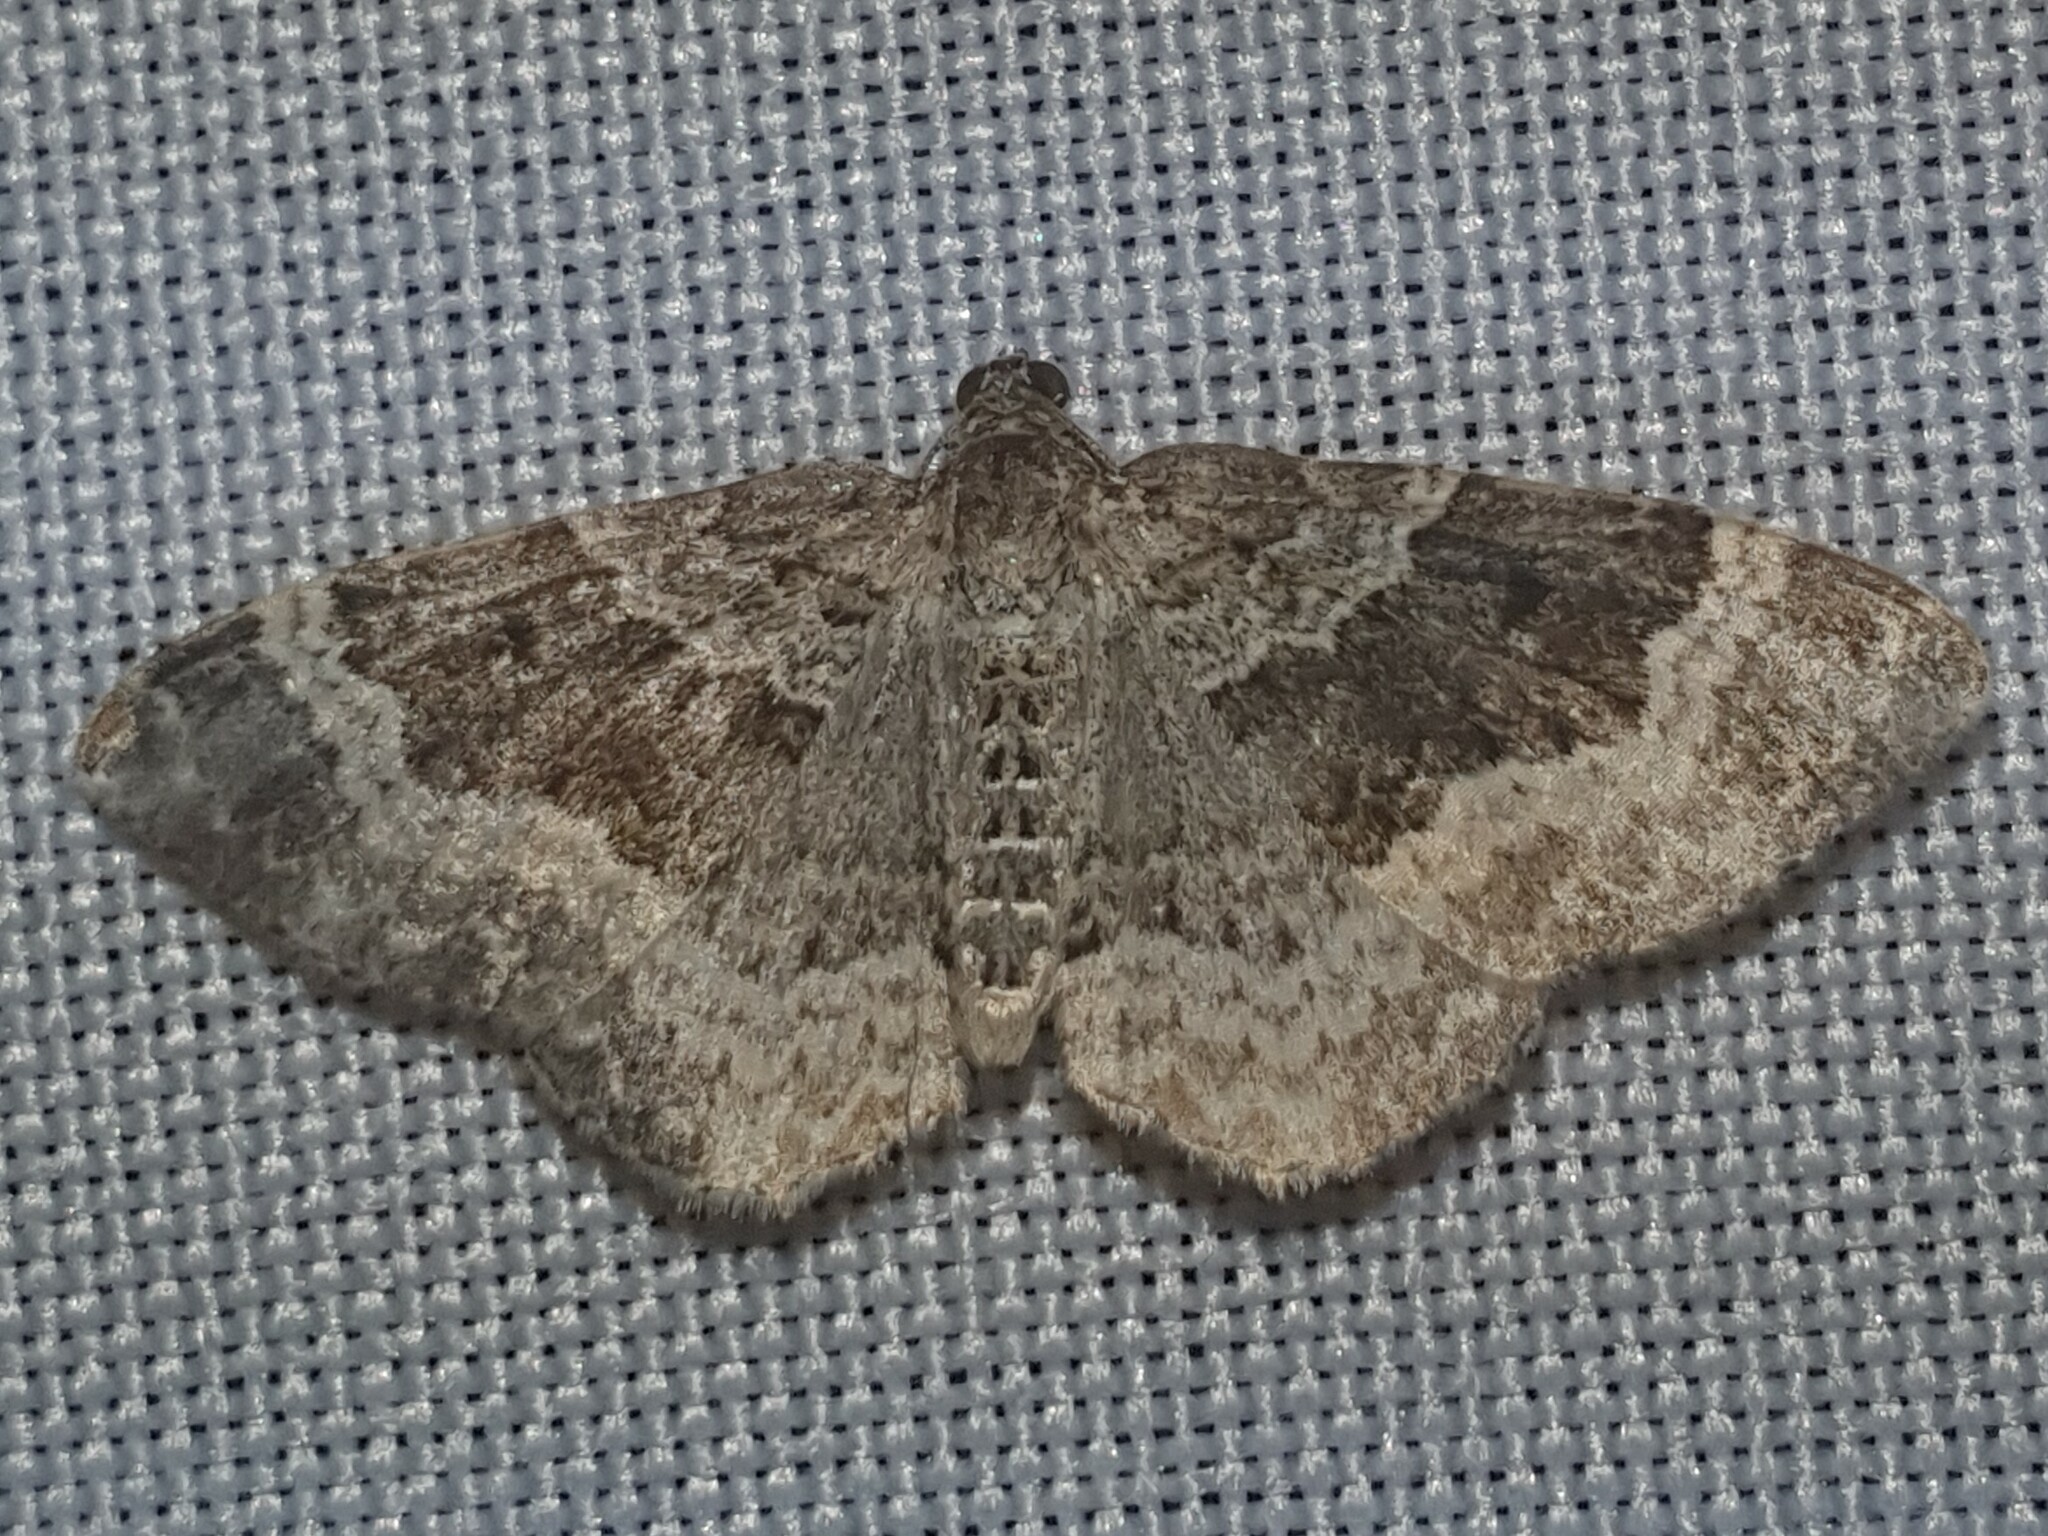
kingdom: Animalia
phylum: Arthropoda
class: Insecta
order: Lepidoptera
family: Geometridae
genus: Epirrhoe
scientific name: Epirrhoe alternata
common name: Common carpet
